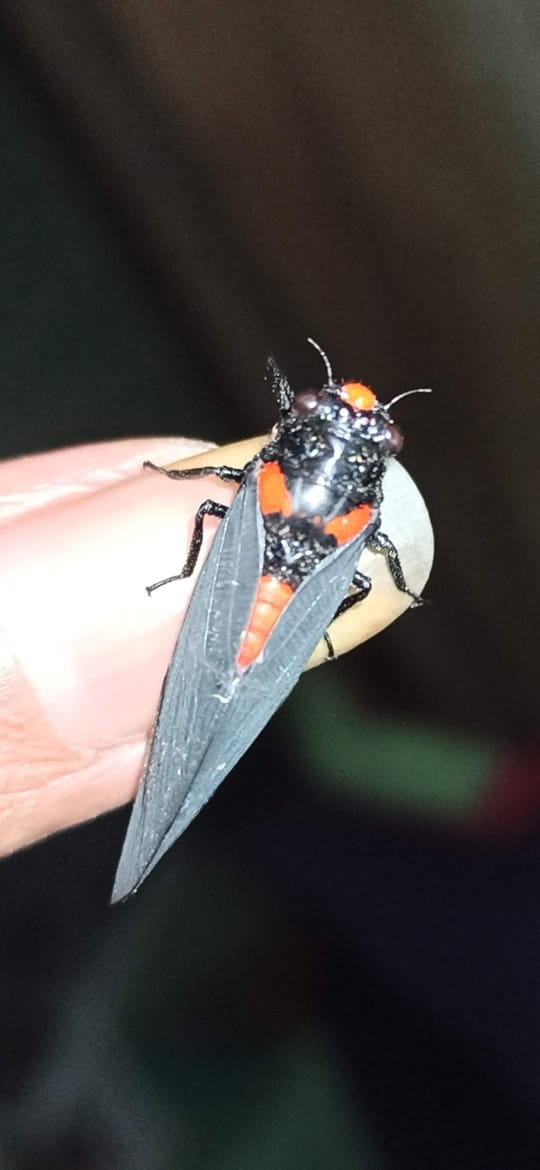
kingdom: Animalia
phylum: Arthropoda
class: Insecta
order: Hemiptera
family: Cicadidae
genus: Huechys
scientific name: Huechys sanguinea
